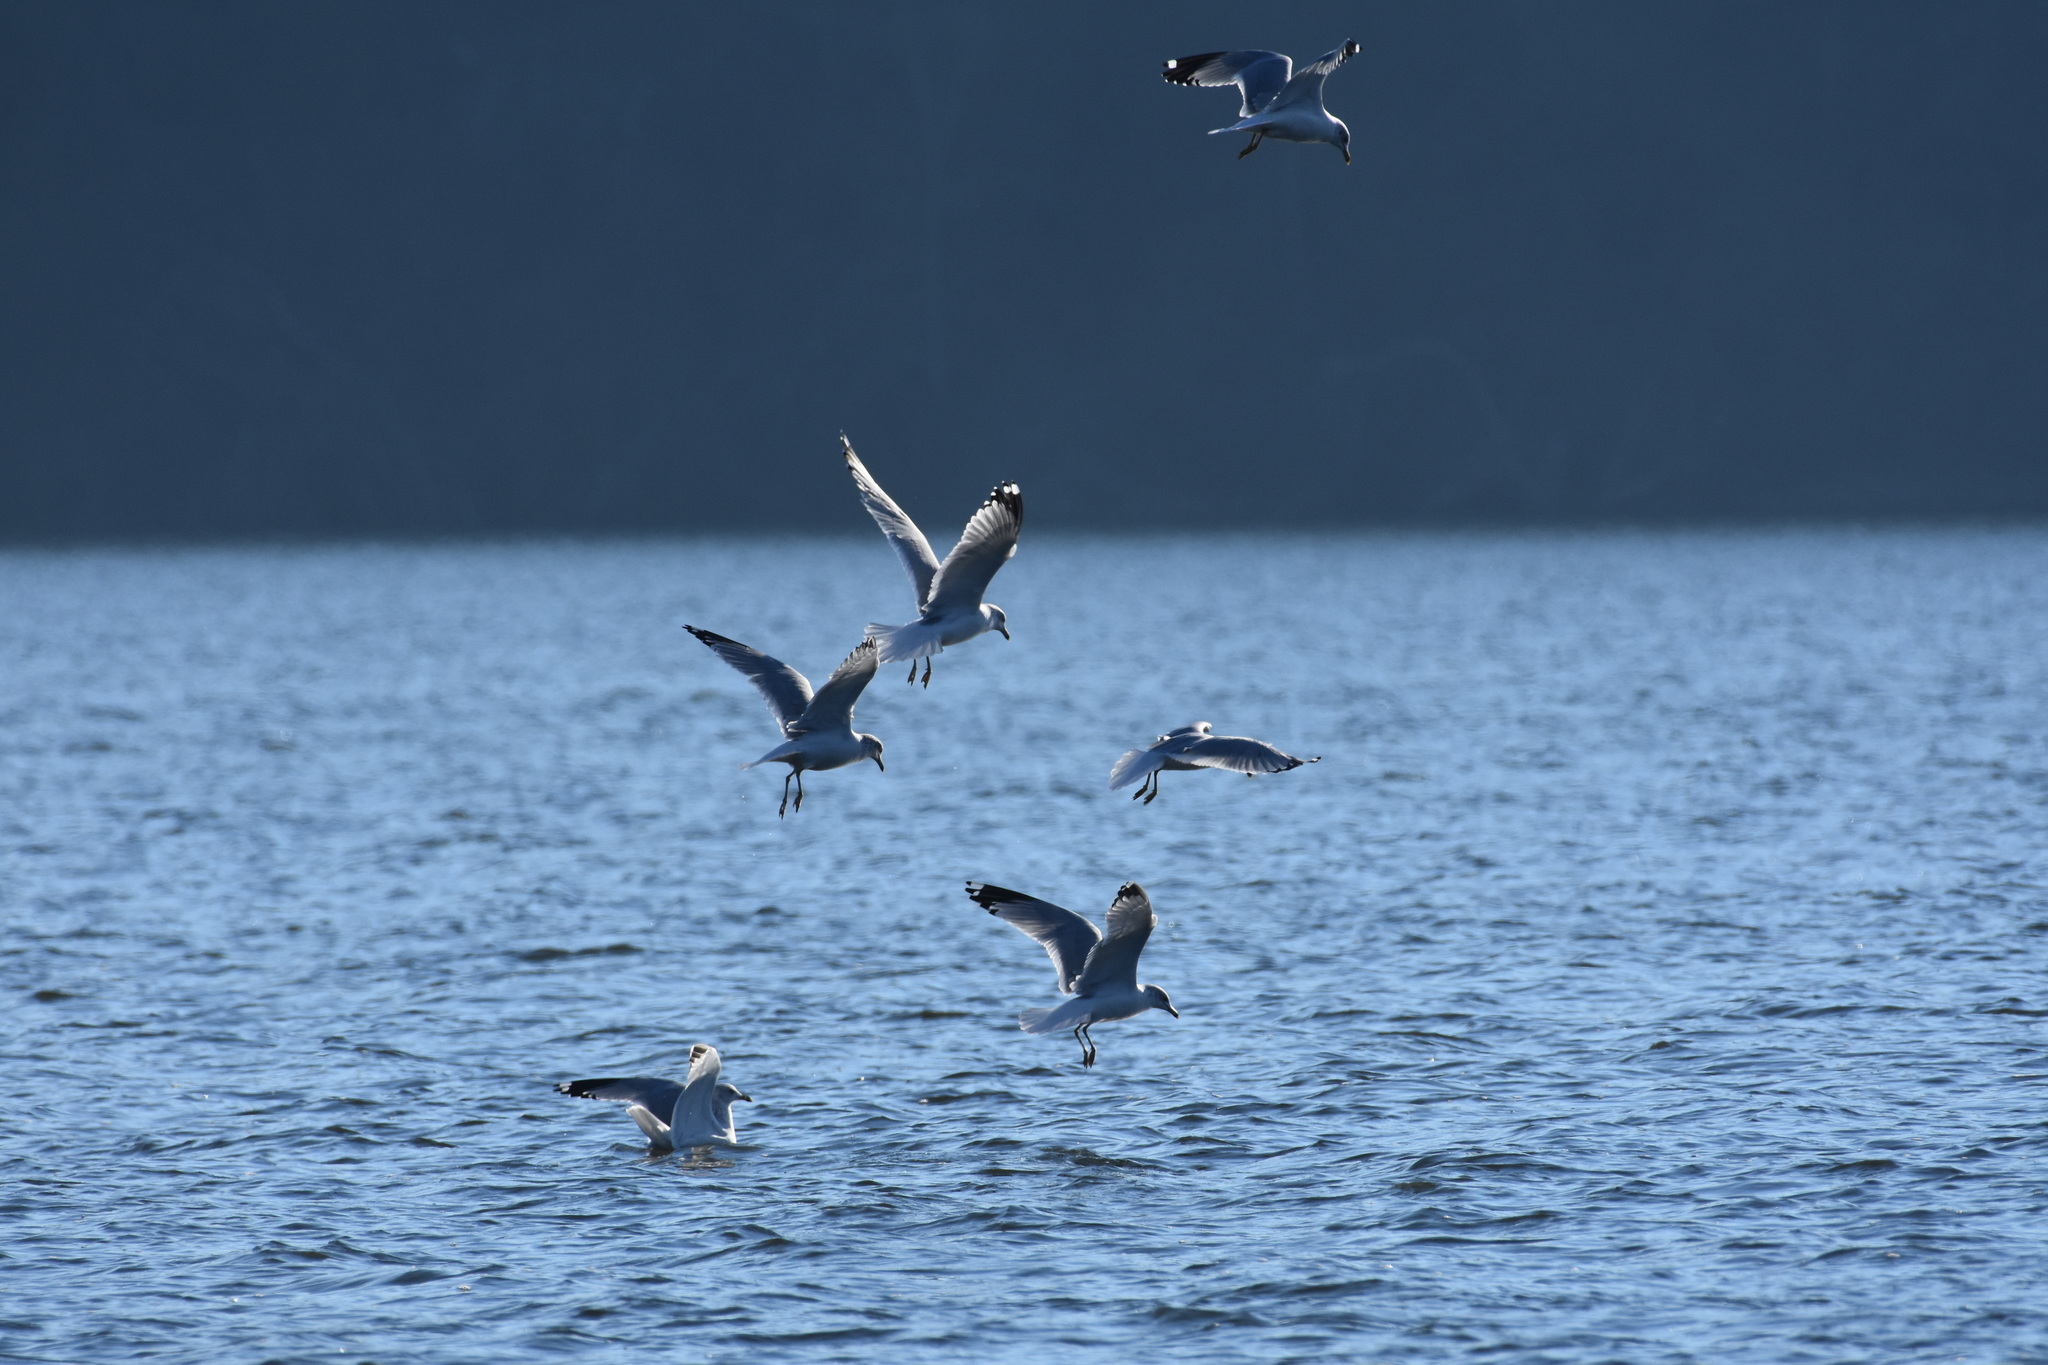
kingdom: Animalia
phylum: Chordata
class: Aves
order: Charadriiformes
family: Laridae
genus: Larus
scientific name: Larus delawarensis
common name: Ring-billed gull
